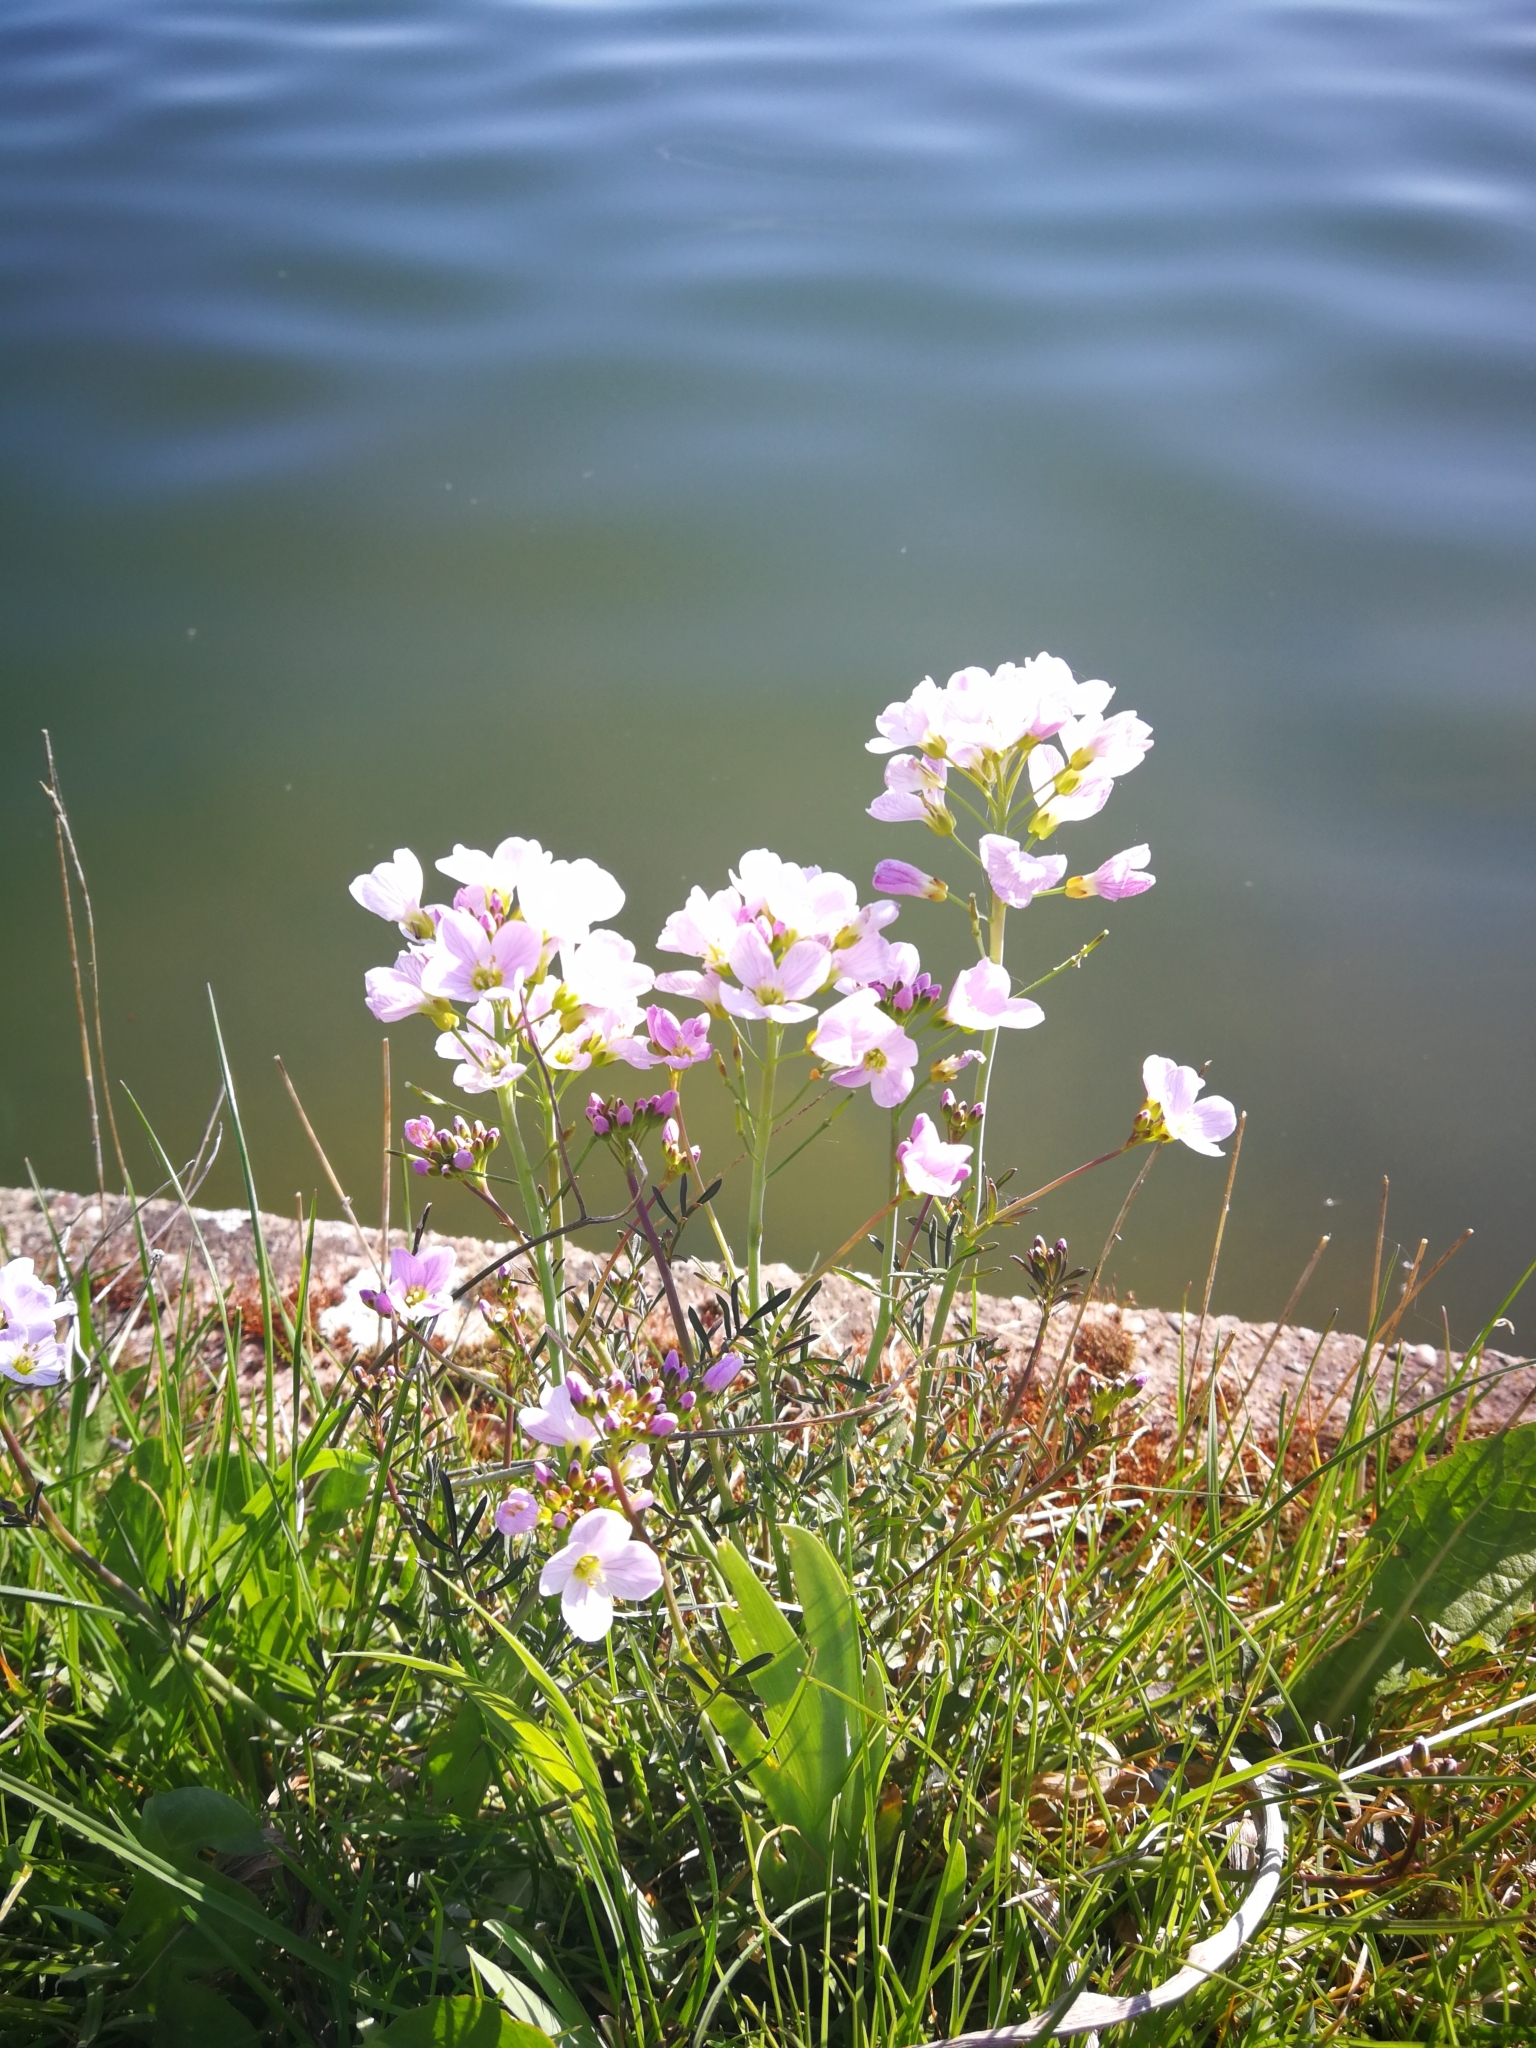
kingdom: Plantae
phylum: Tracheophyta
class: Magnoliopsida
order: Brassicales
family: Brassicaceae
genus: Cardamine
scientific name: Cardamine pratensis
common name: Cuckoo flower
